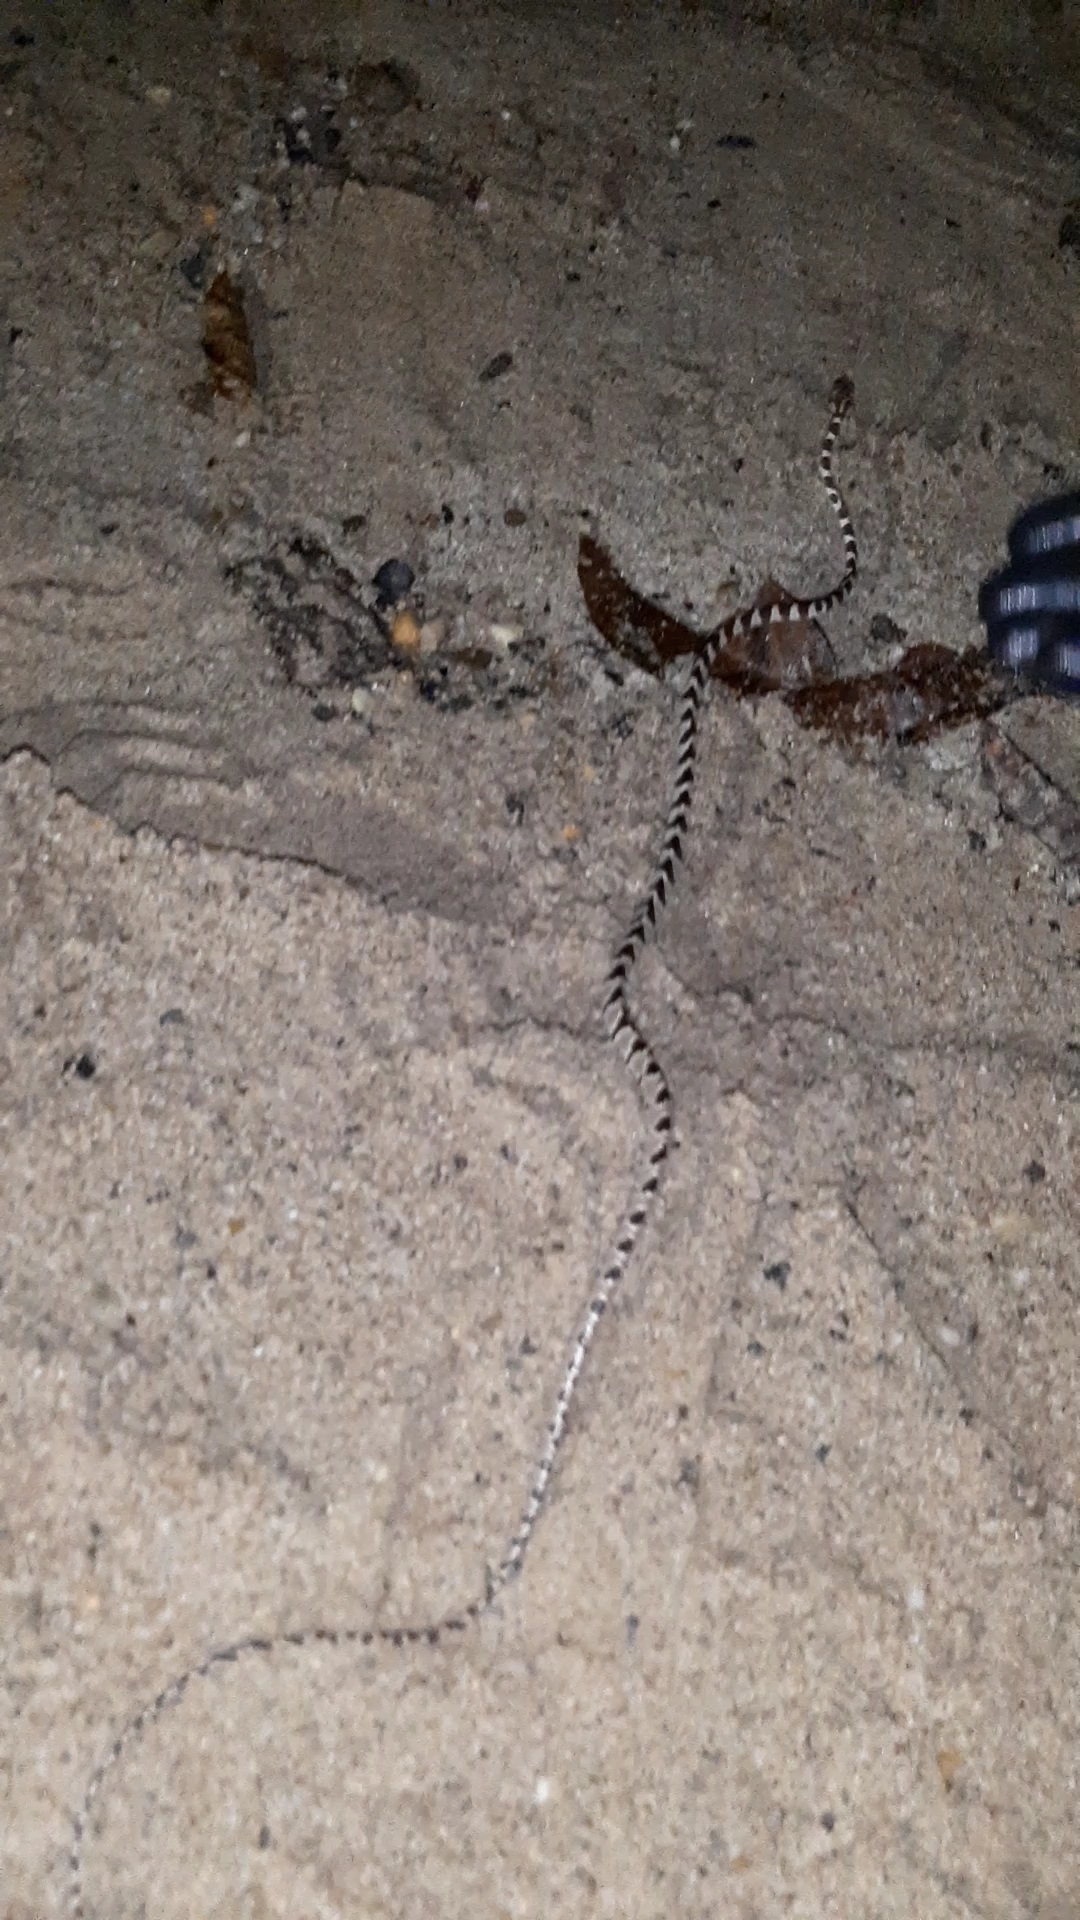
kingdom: Animalia
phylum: Chordata
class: Squamata
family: Colubridae
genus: Imantodes
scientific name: Imantodes cenchoa
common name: Blunthead tree snake
